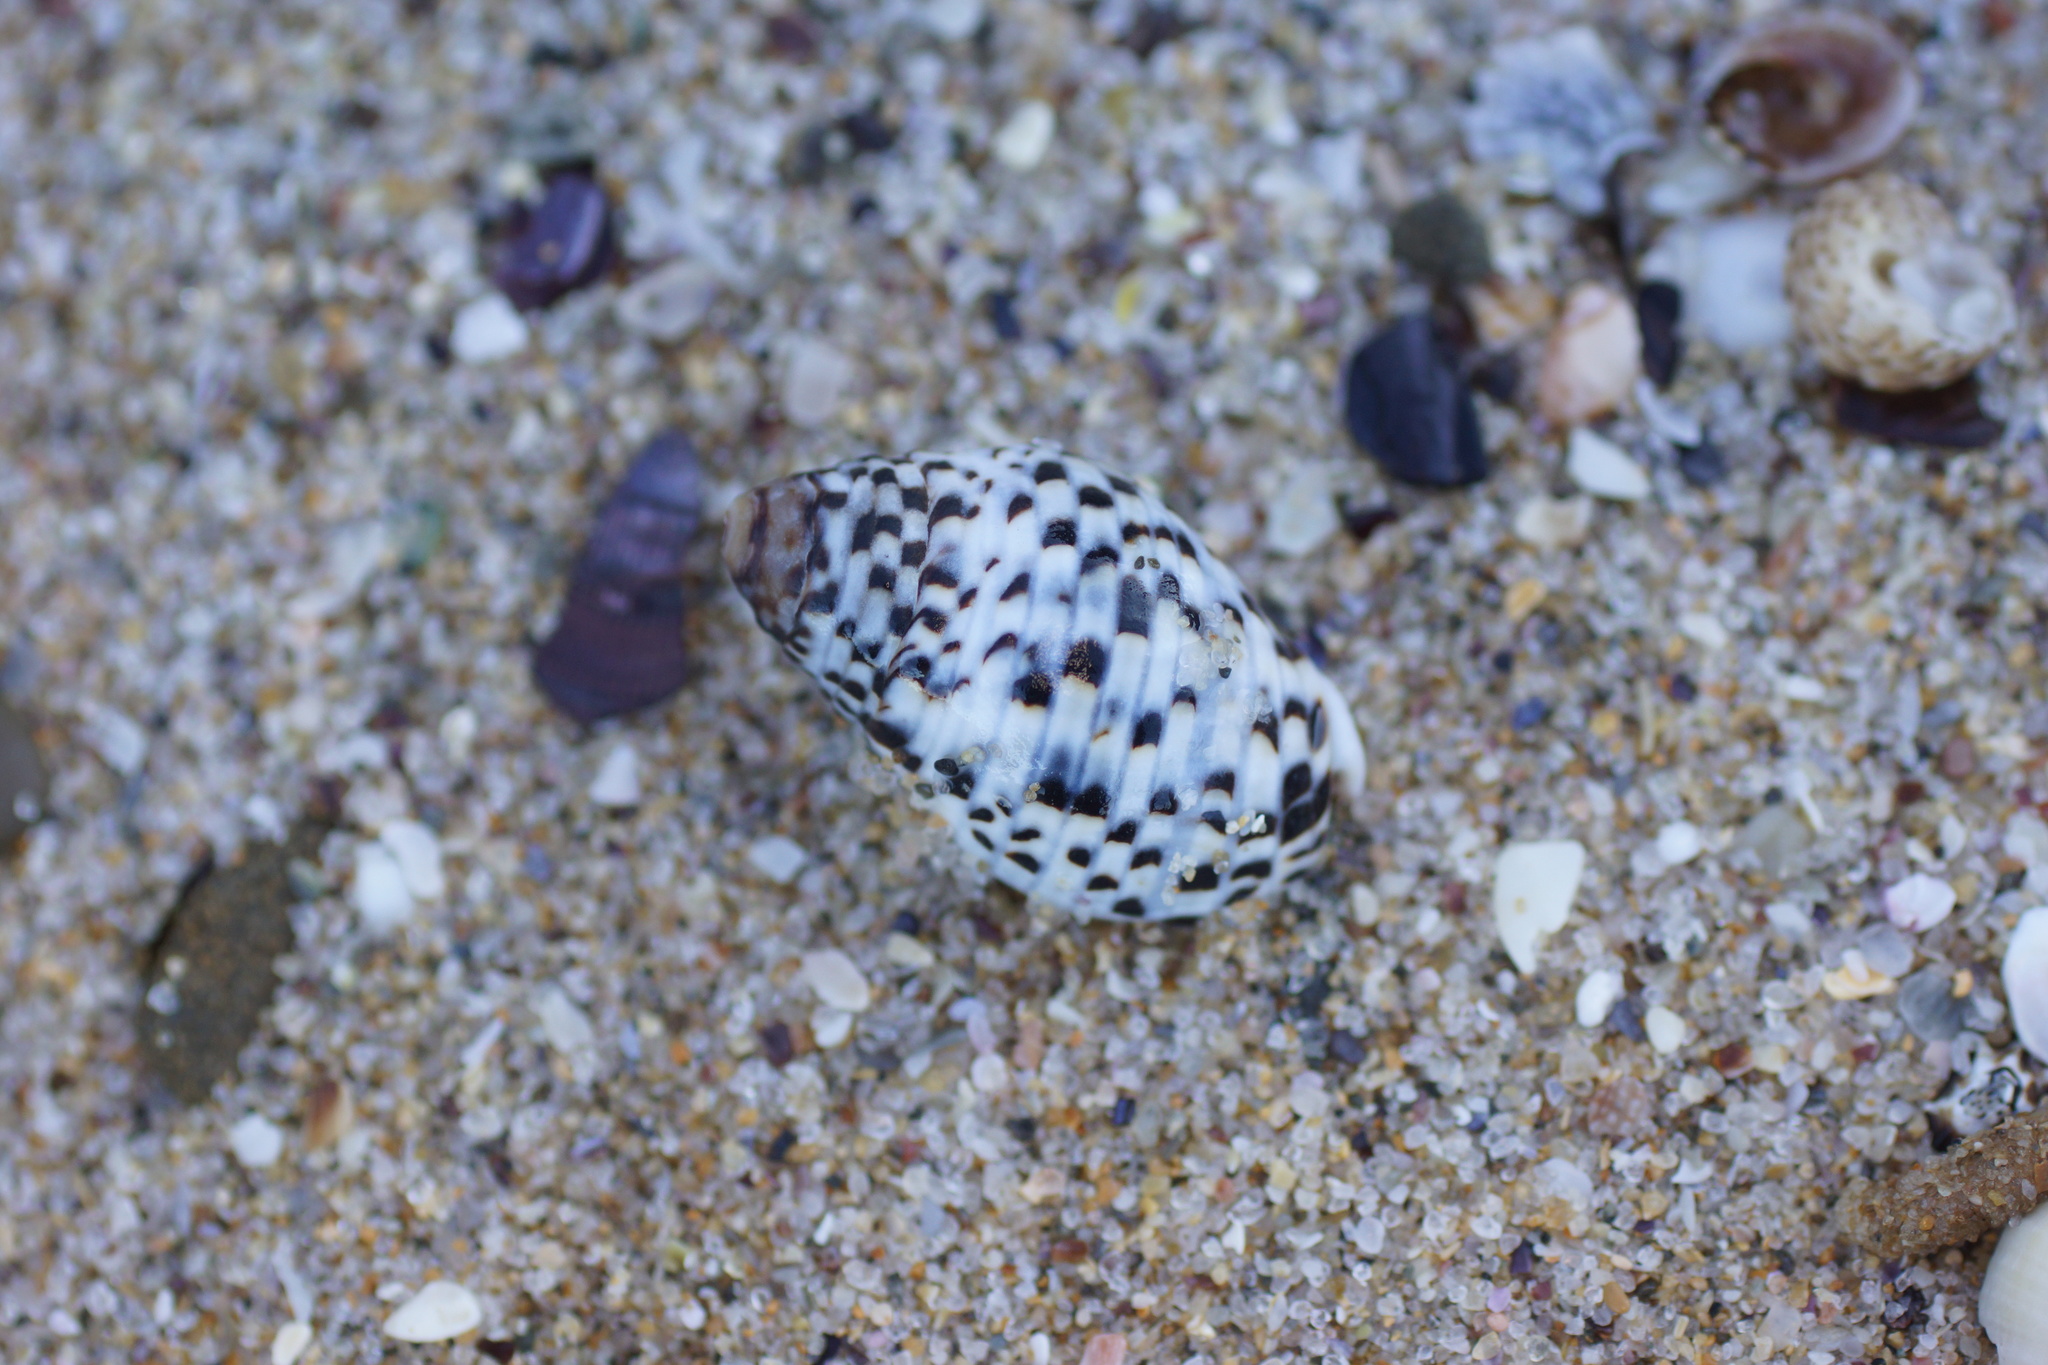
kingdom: Animalia
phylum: Mollusca
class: Gastropoda
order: Neogastropoda
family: Cominellidae
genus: Cominella
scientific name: Cominella lineolata
